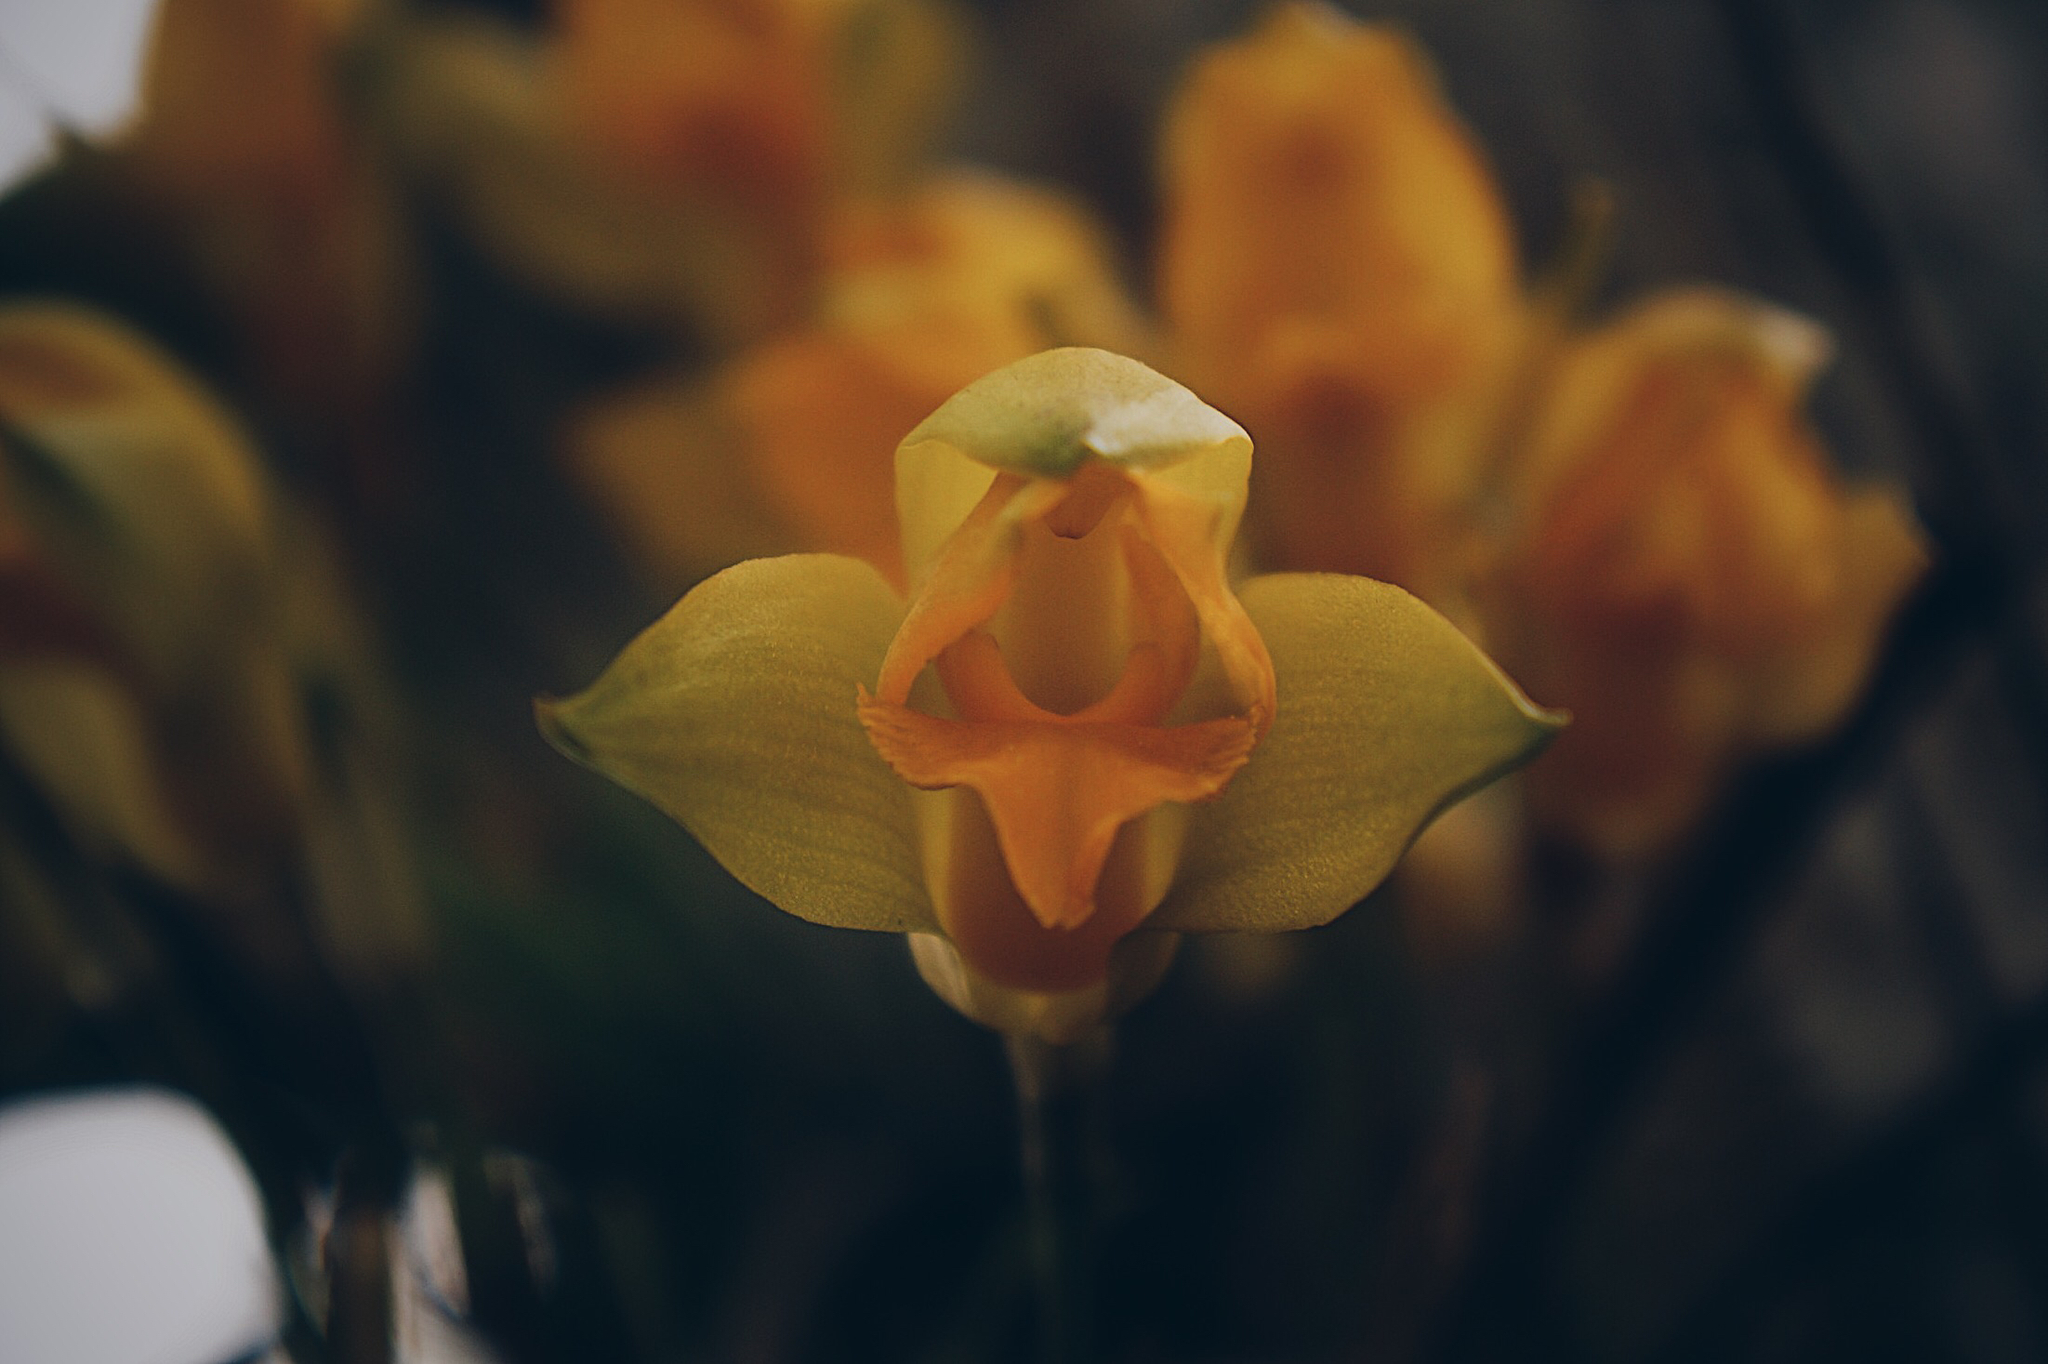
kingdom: Plantae
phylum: Tracheophyta
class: Liliopsida
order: Asparagales
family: Orchidaceae
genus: Lycaste
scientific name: Lycaste consobrina
